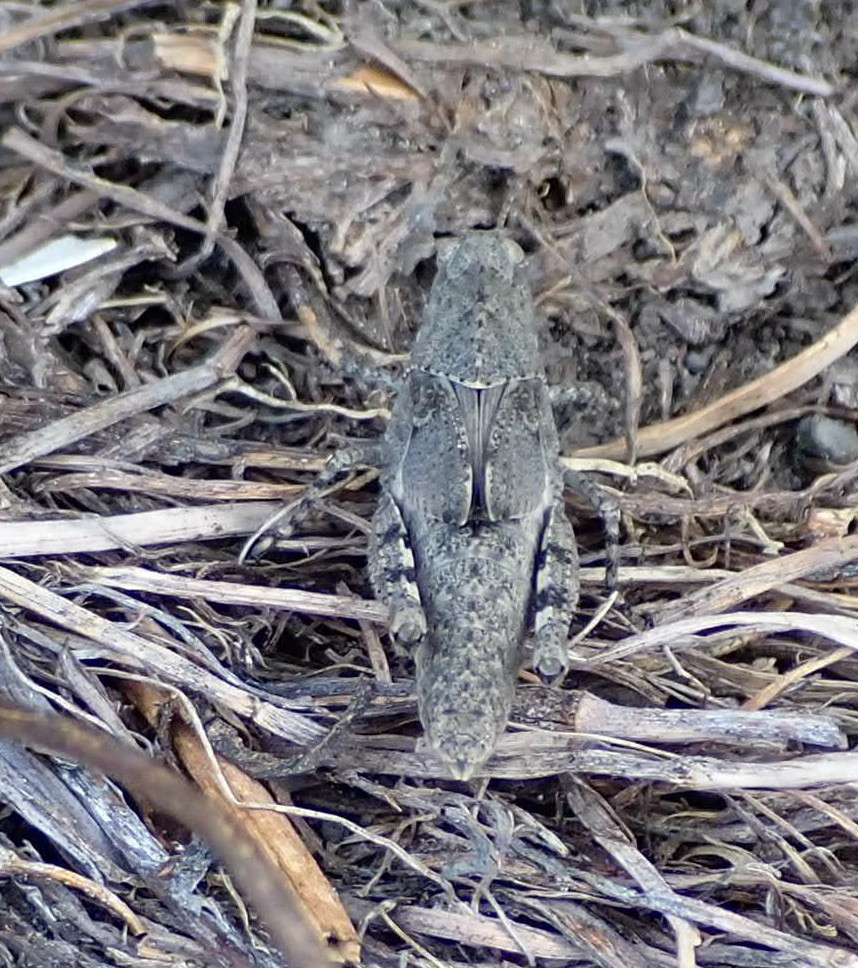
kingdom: Animalia
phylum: Arthropoda
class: Insecta
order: Orthoptera
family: Acrididae
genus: Dissosteira
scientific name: Dissosteira carolina
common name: Carolina grasshopper
